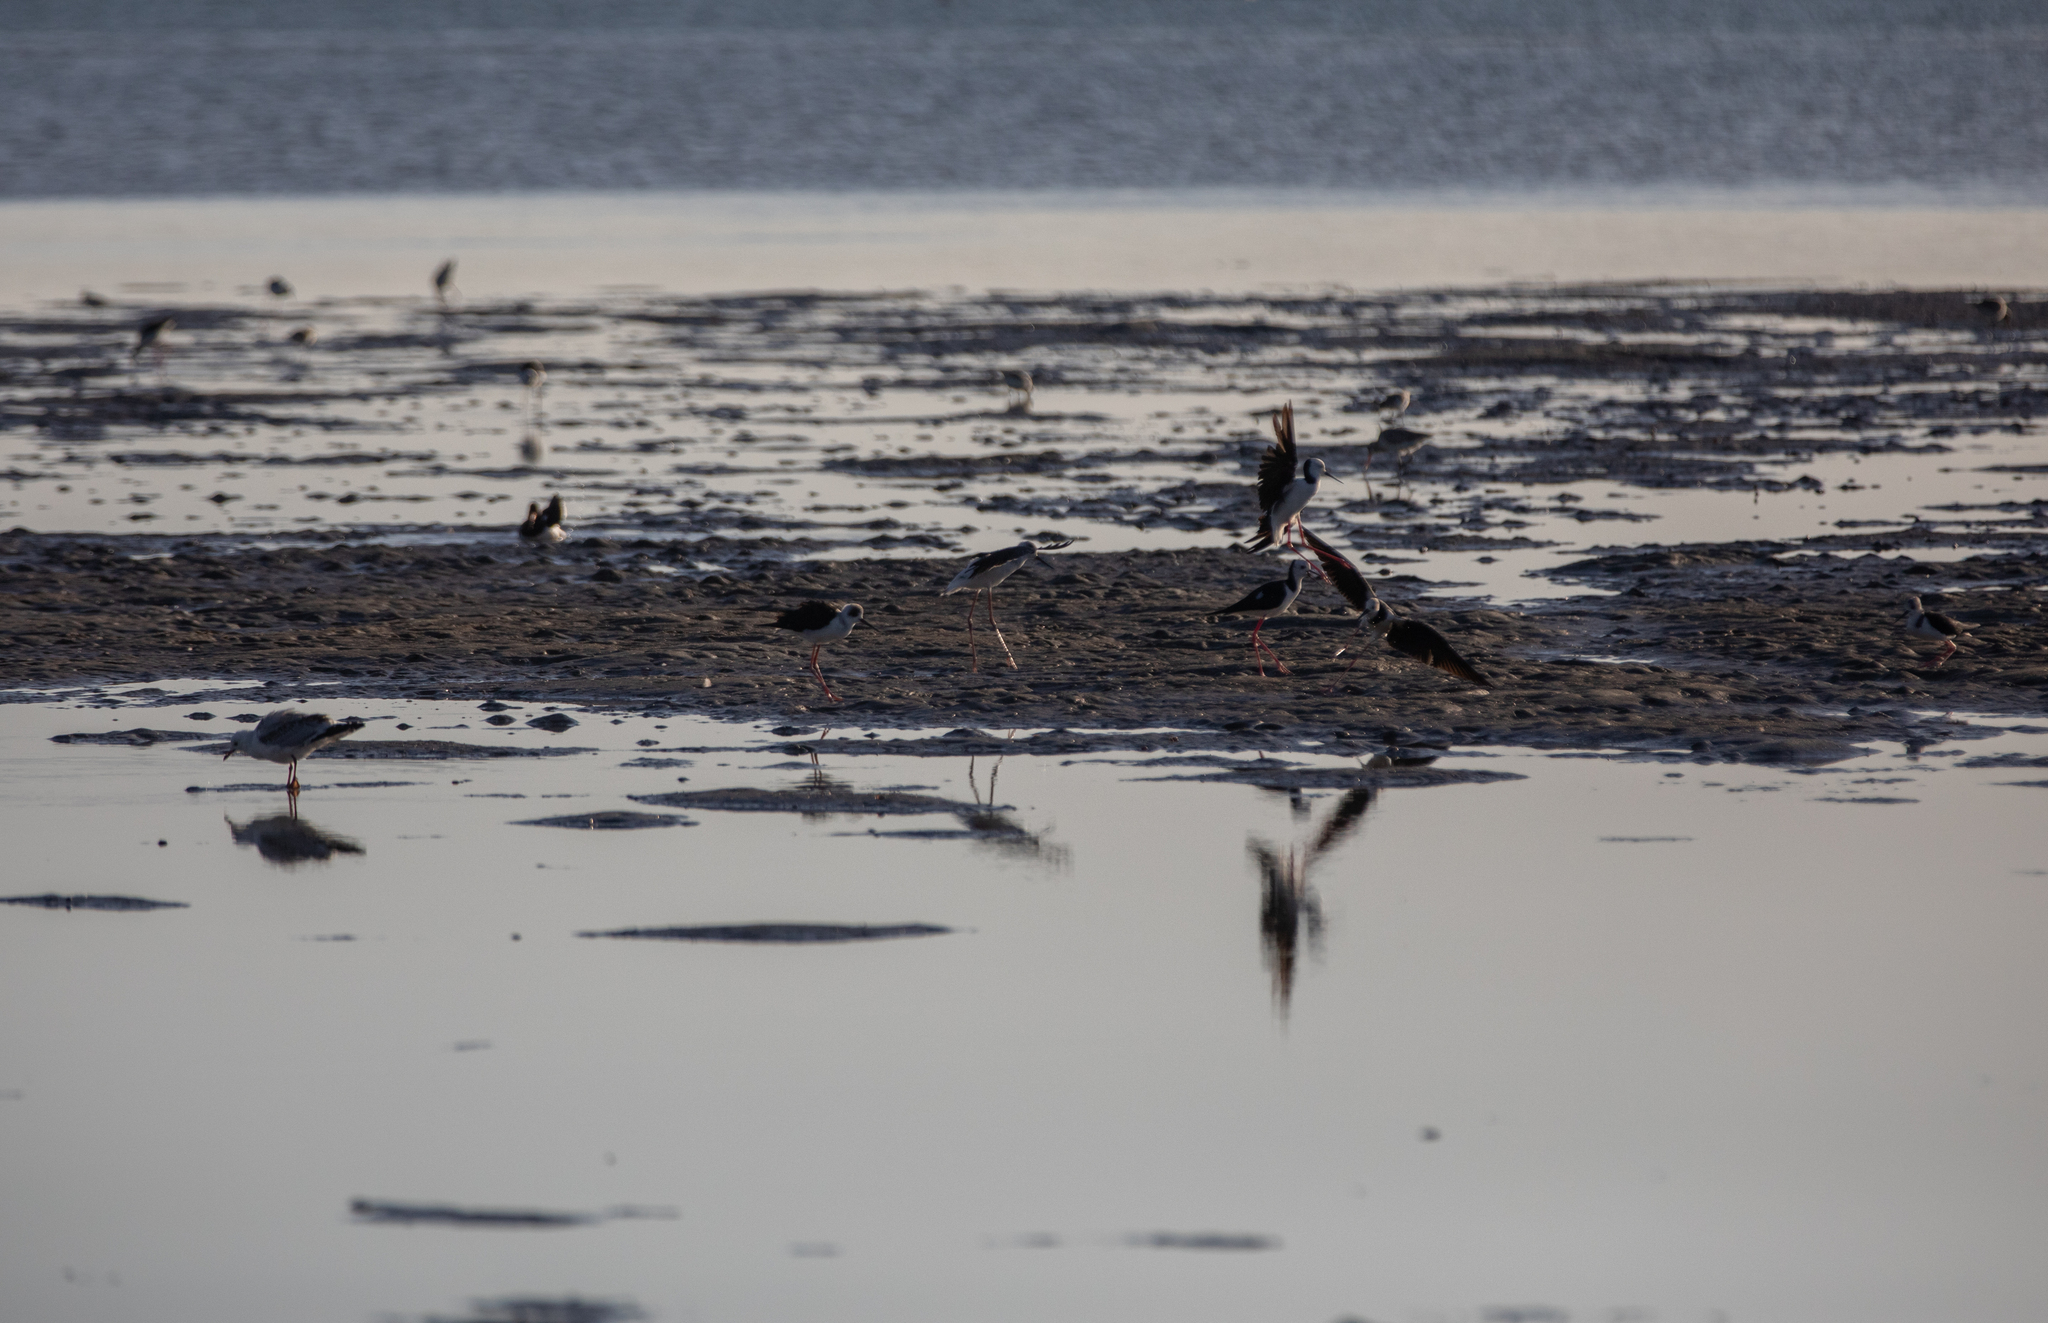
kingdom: Animalia
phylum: Chordata
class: Aves
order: Charadriiformes
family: Recurvirostridae
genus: Himantopus
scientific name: Himantopus leucocephalus
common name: White-headed stilt
